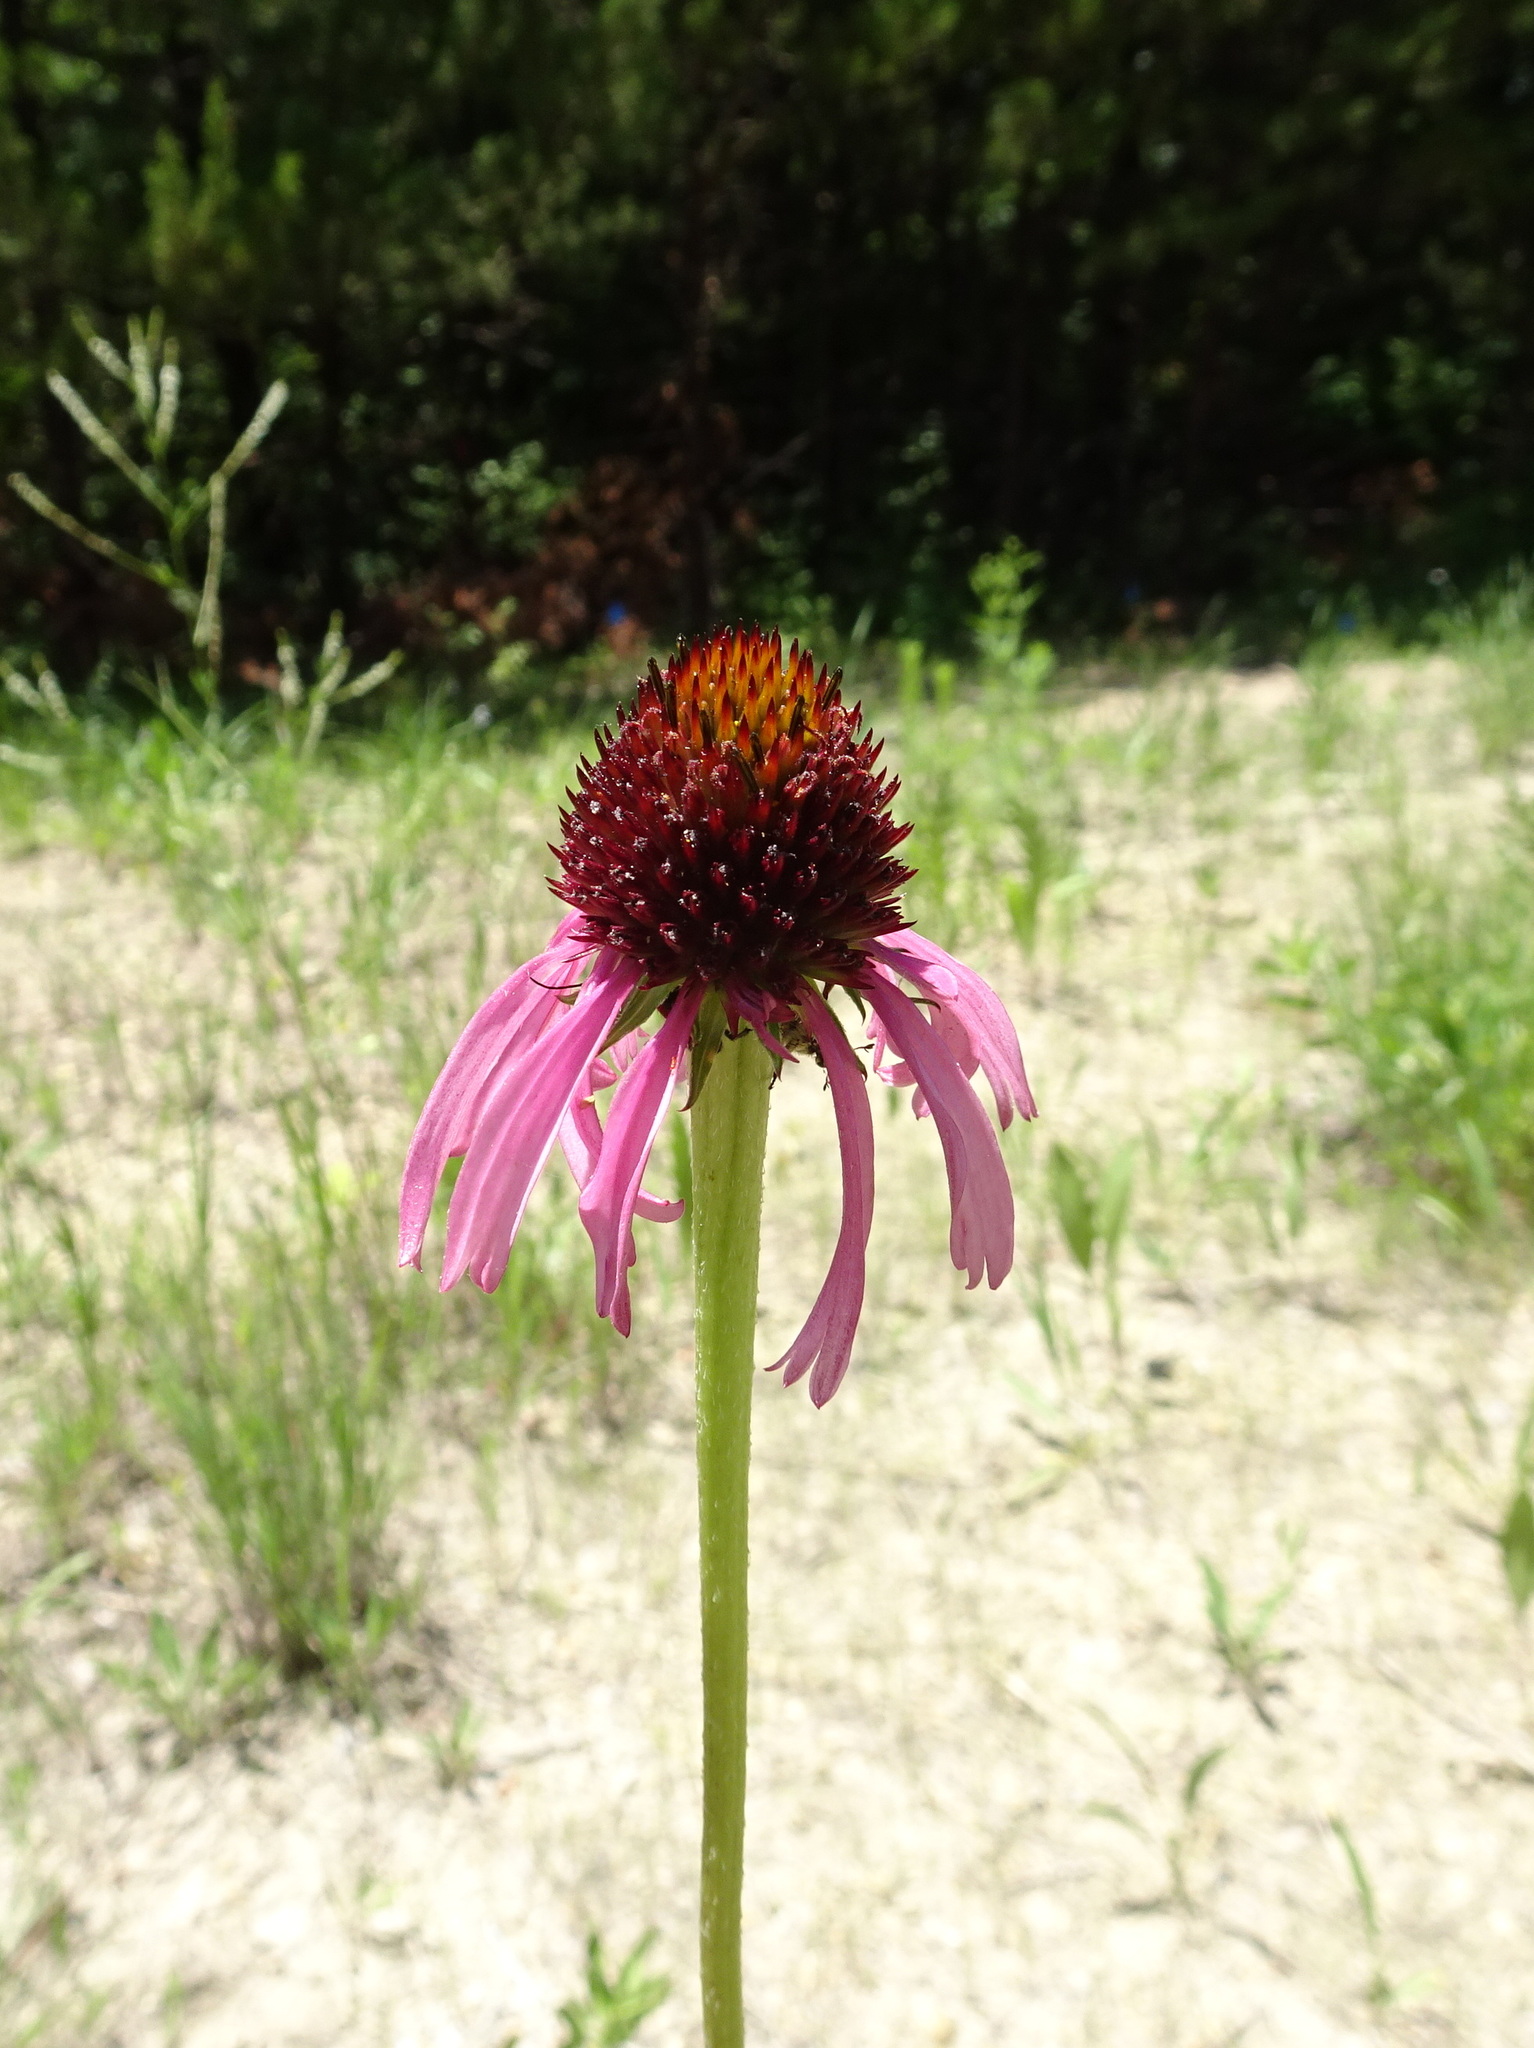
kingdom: Plantae
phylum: Tracheophyta
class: Magnoliopsida
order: Asterales
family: Asteraceae
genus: Echinacea
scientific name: Echinacea atrorubens
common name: Topeka purple-coneflower
